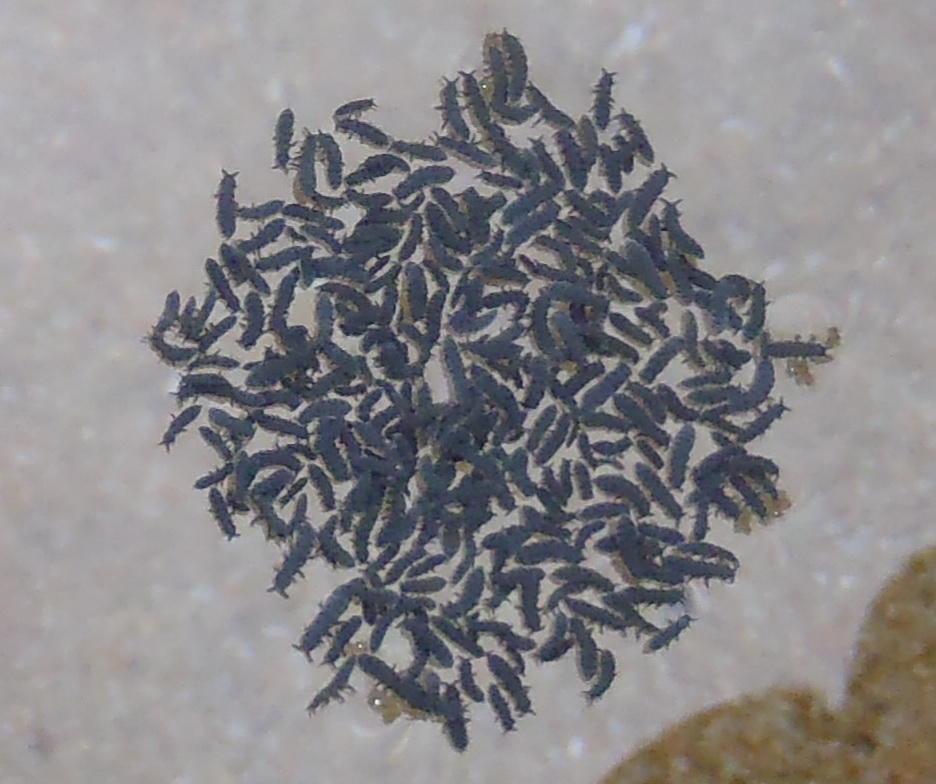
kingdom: Animalia
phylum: Arthropoda
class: Collembola
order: Poduromorpha
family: Neanuridae
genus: Anurida
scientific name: Anurida maritima
